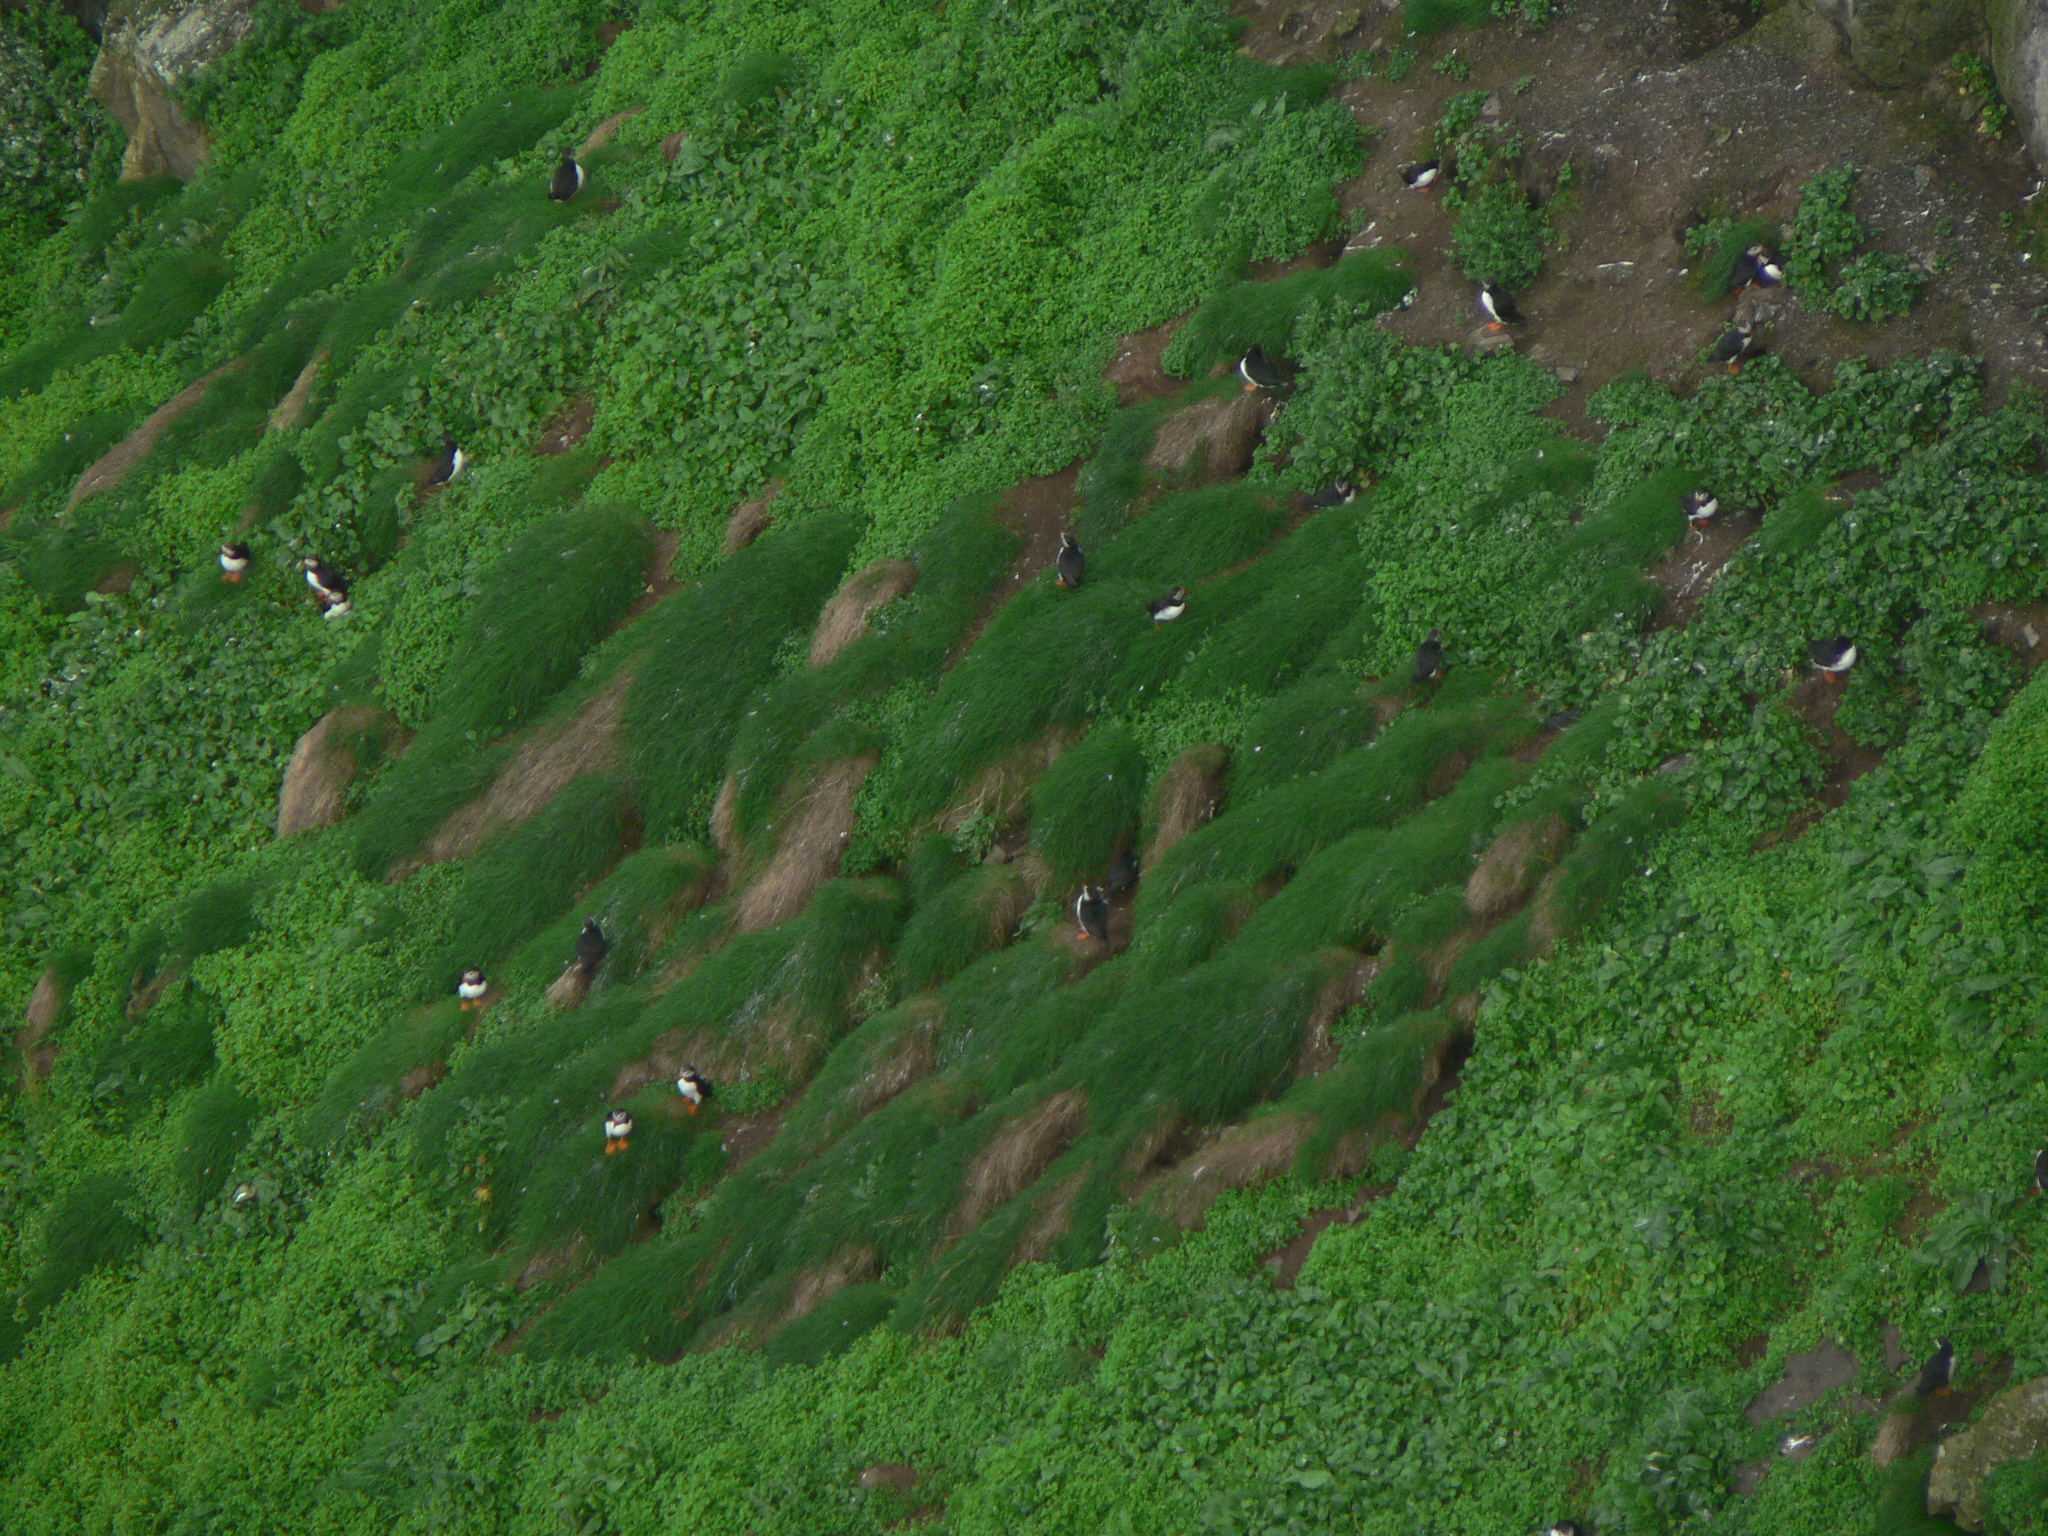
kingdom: Animalia
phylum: Chordata
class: Aves
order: Charadriiformes
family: Alcidae
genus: Fratercula
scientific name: Fratercula arctica
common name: Atlantic puffin
